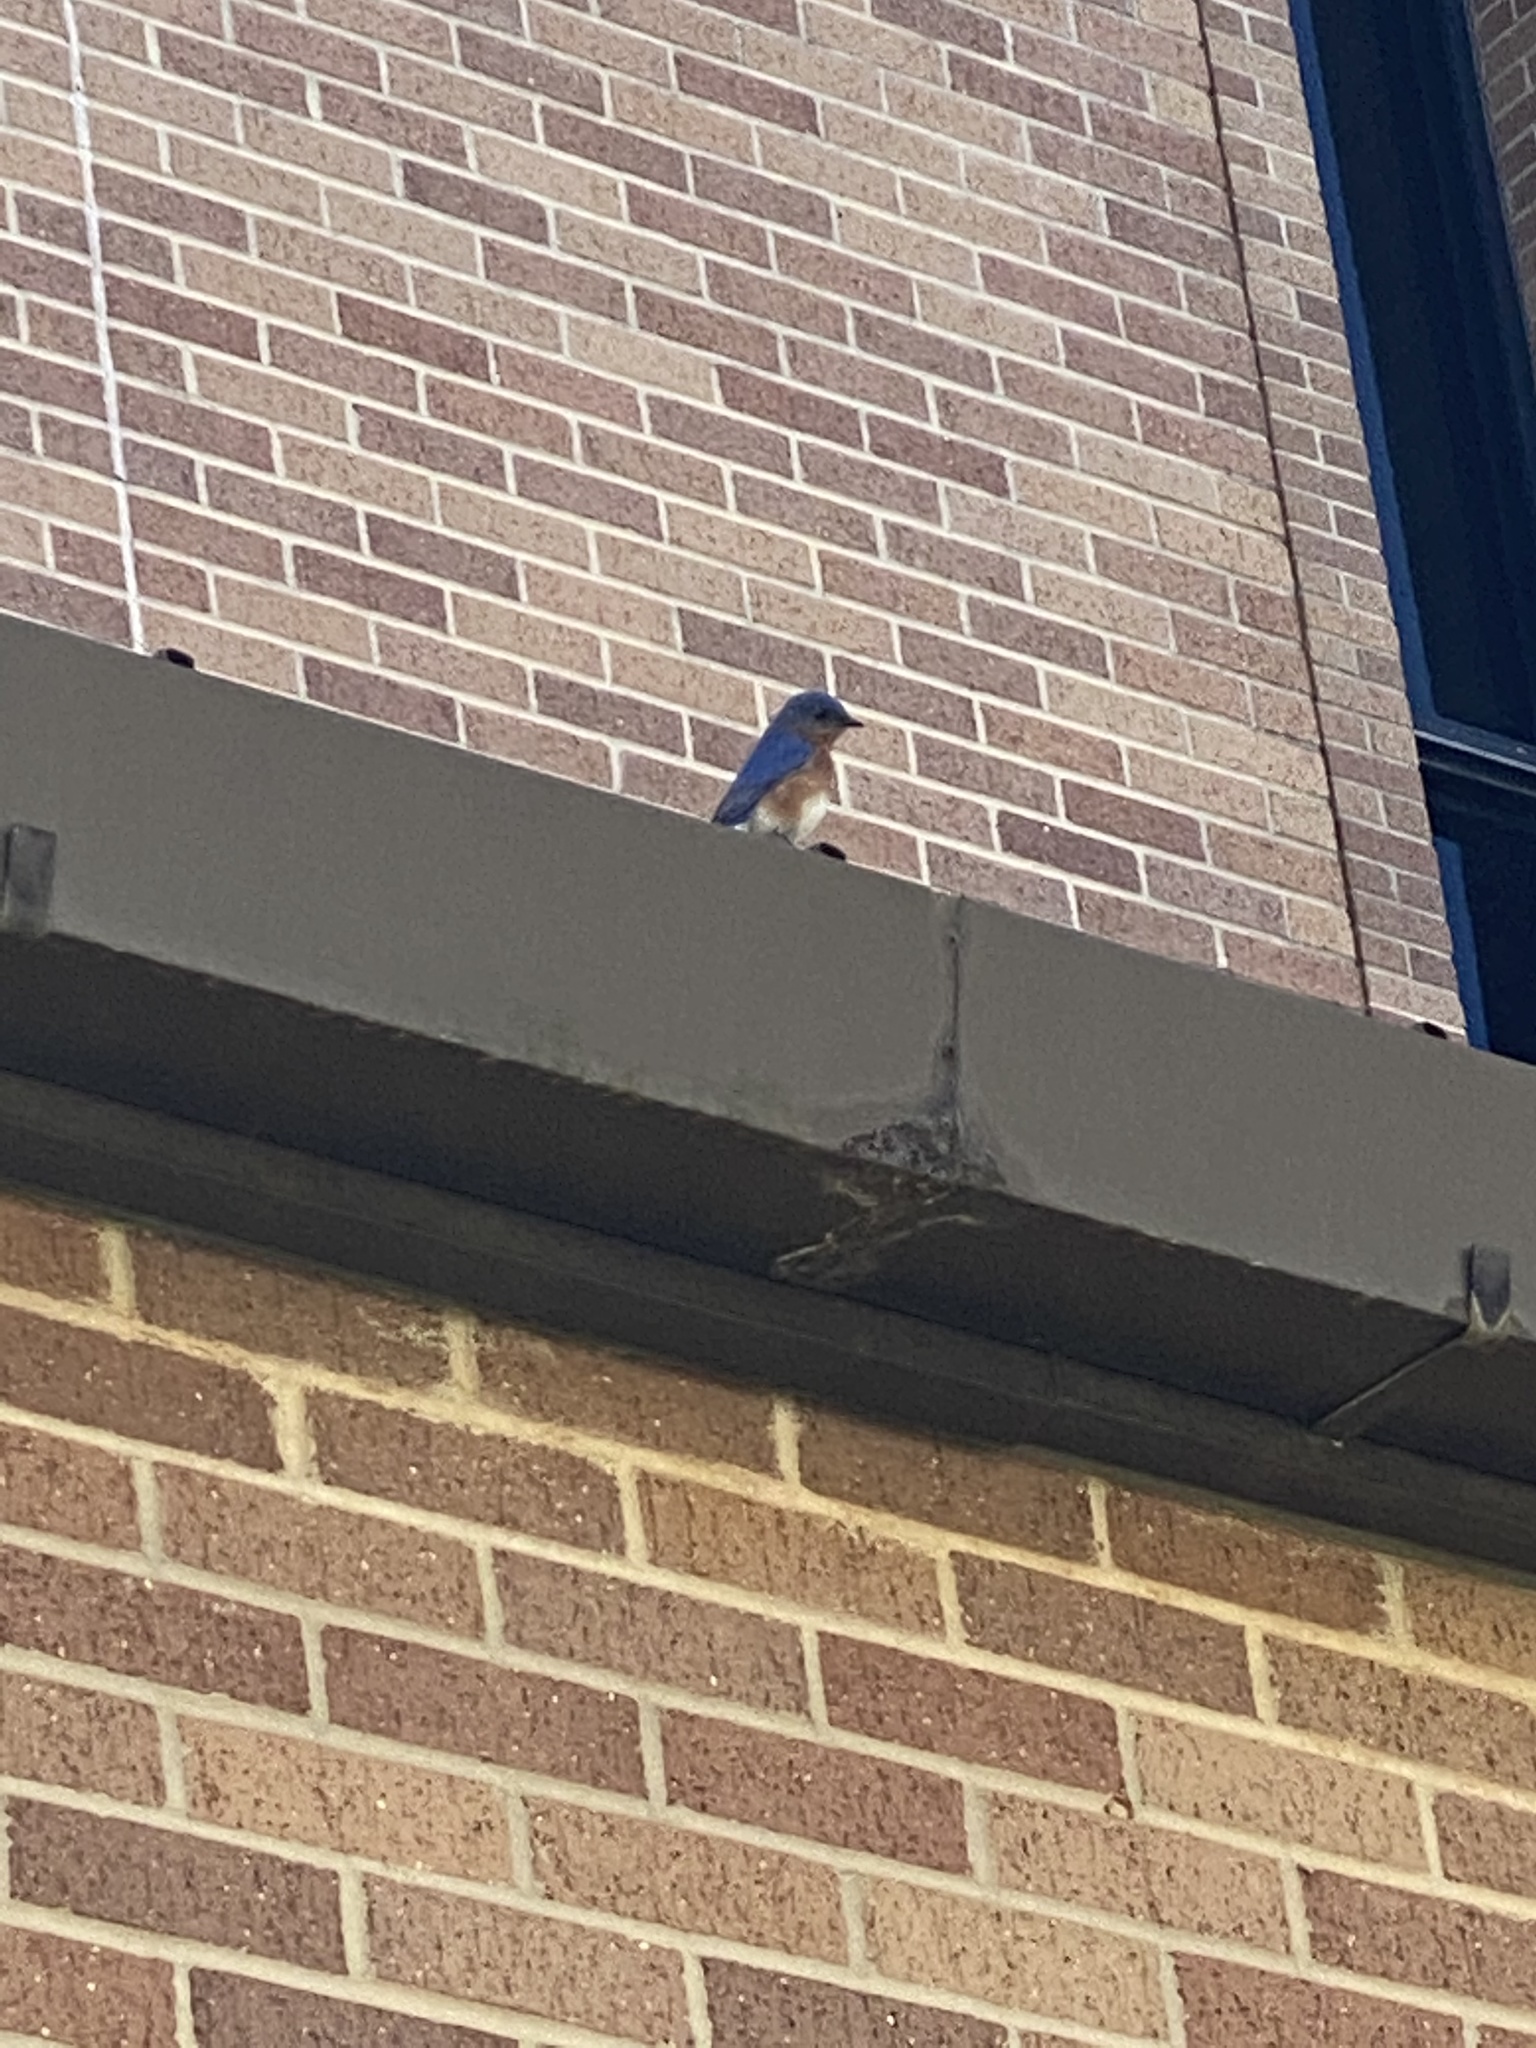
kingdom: Animalia
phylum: Chordata
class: Aves
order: Passeriformes
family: Turdidae
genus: Sialia
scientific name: Sialia sialis
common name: Eastern bluebird
